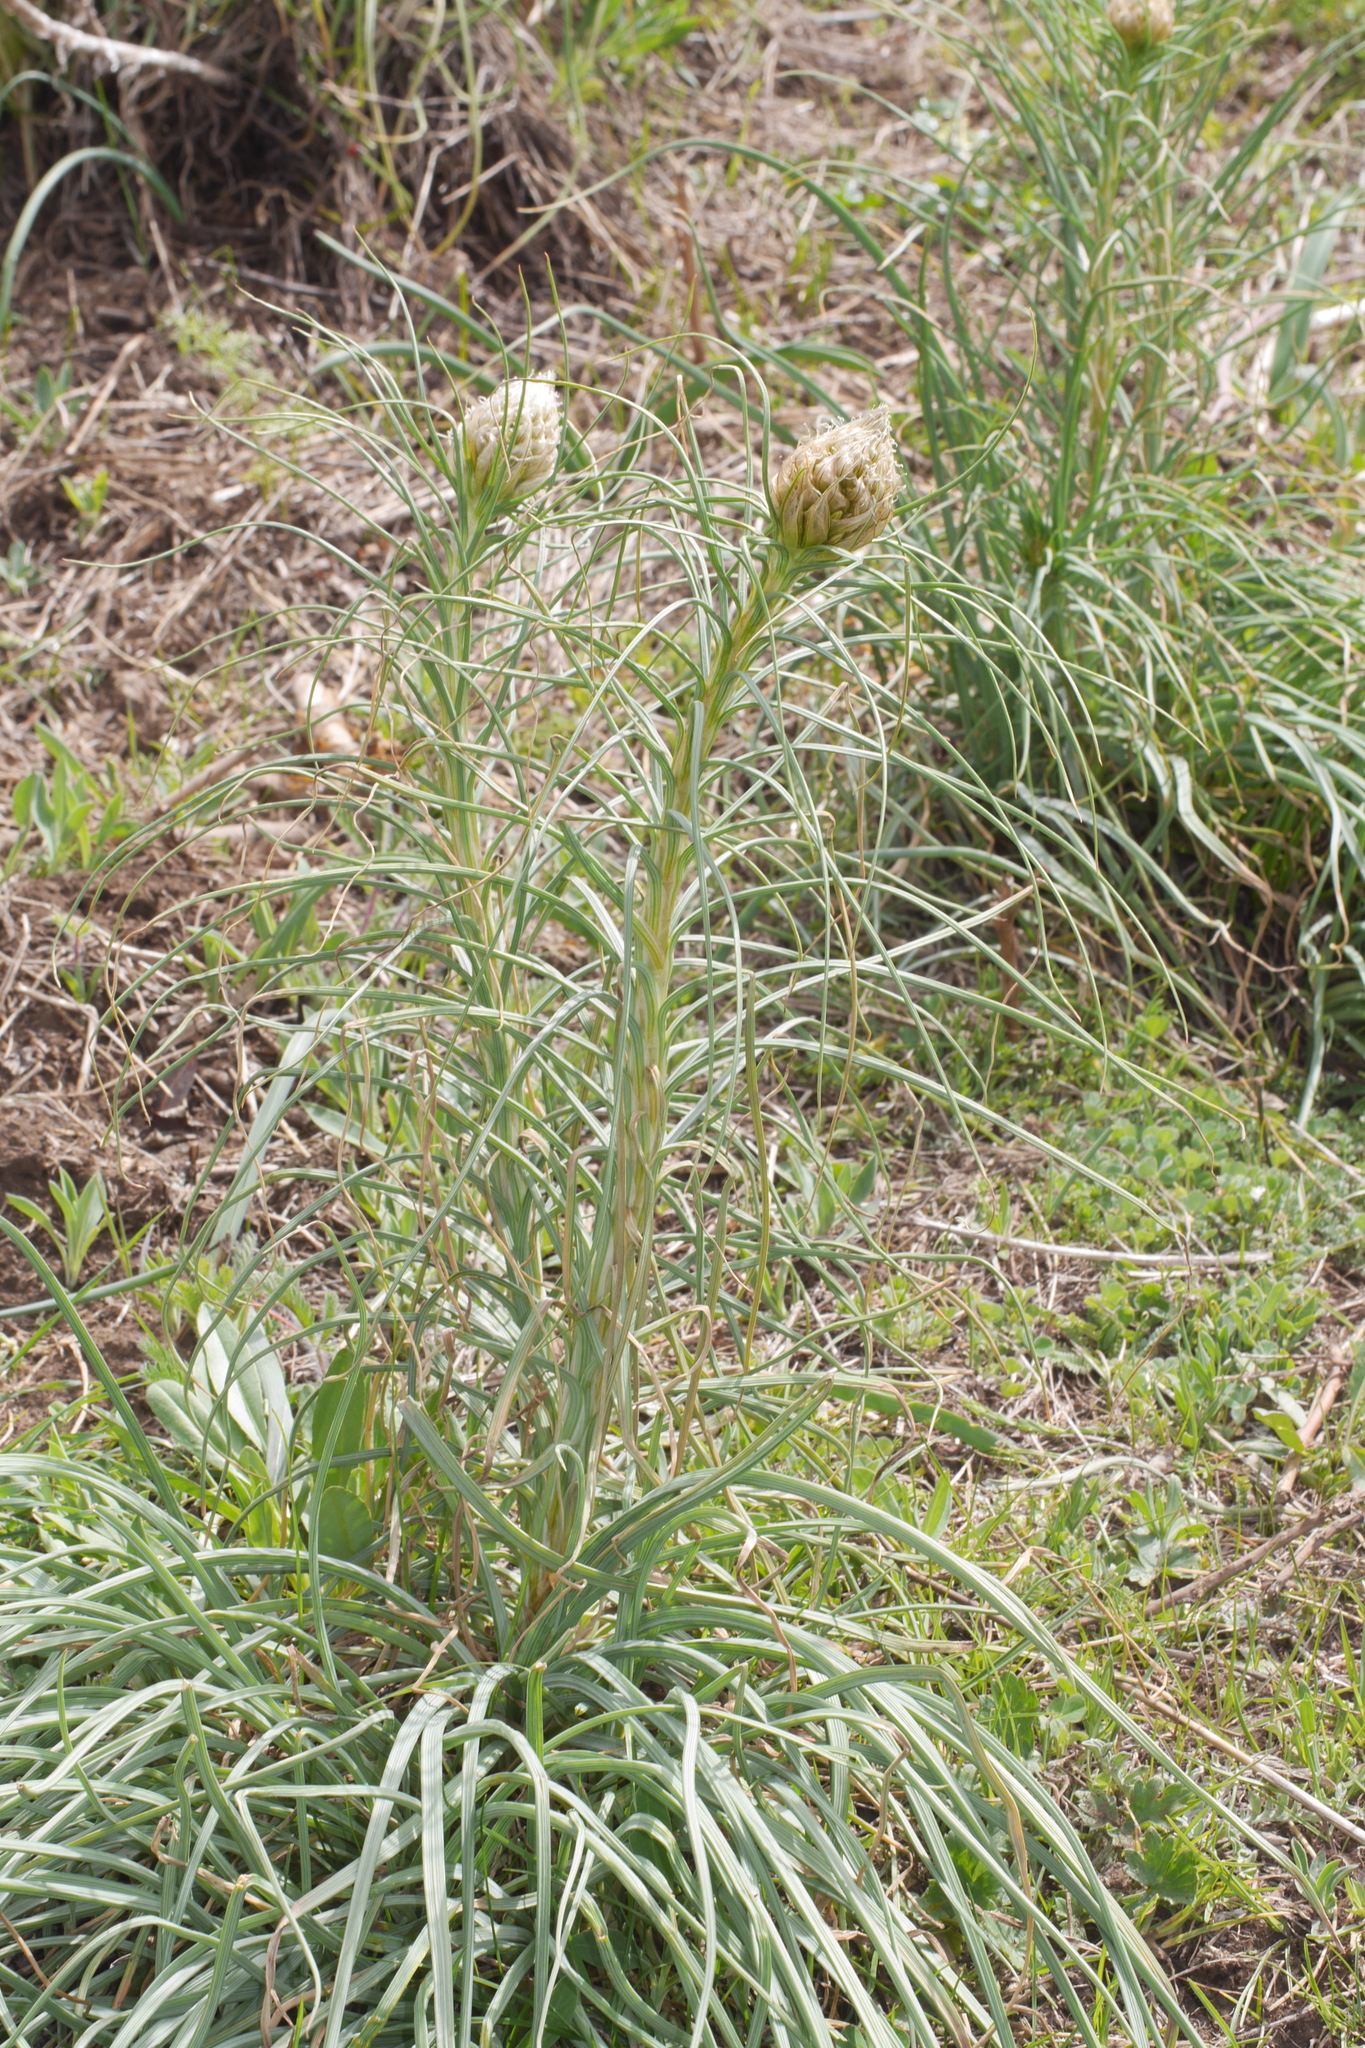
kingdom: Plantae
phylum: Tracheophyta
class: Liliopsida
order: Asparagales
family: Asphodelaceae
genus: Asphodeline
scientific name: Asphodeline lutea
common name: Yellow asphodel
